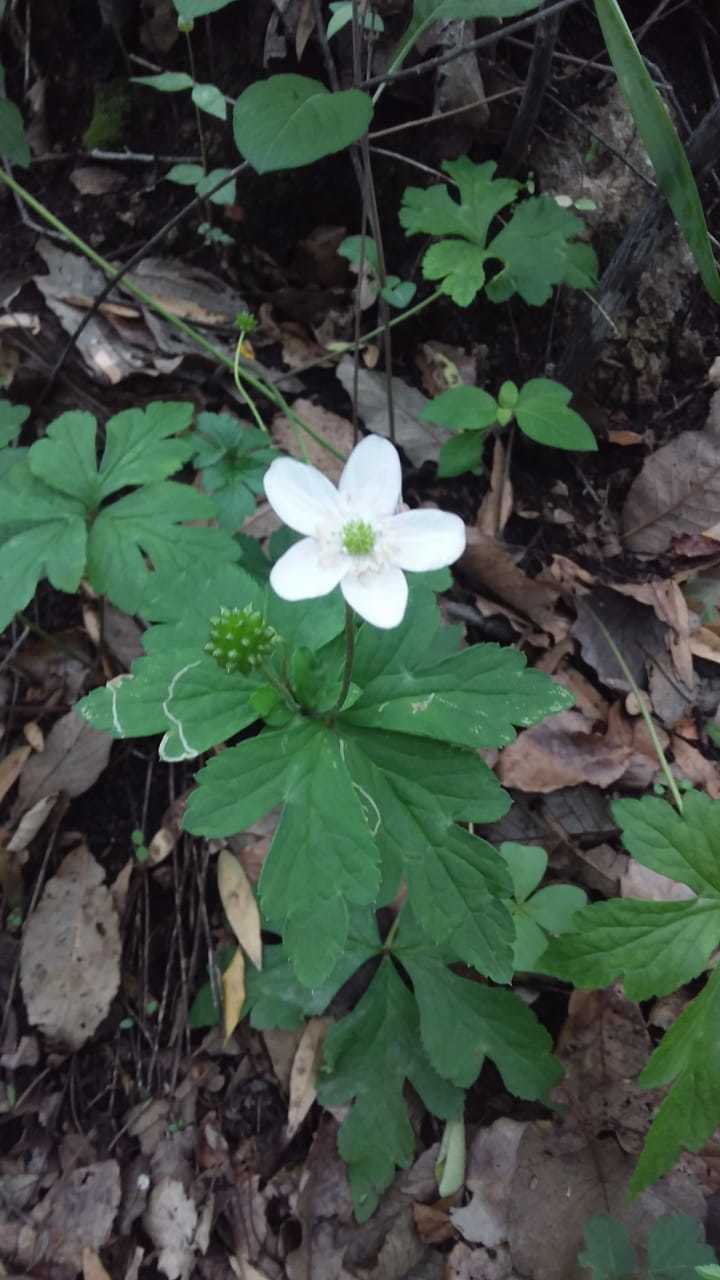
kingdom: Plantae
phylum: Tracheophyta
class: Magnoliopsida
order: Ranunculales
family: Ranunculaceae
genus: Knowltonia
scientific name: Knowltonia mexicana
